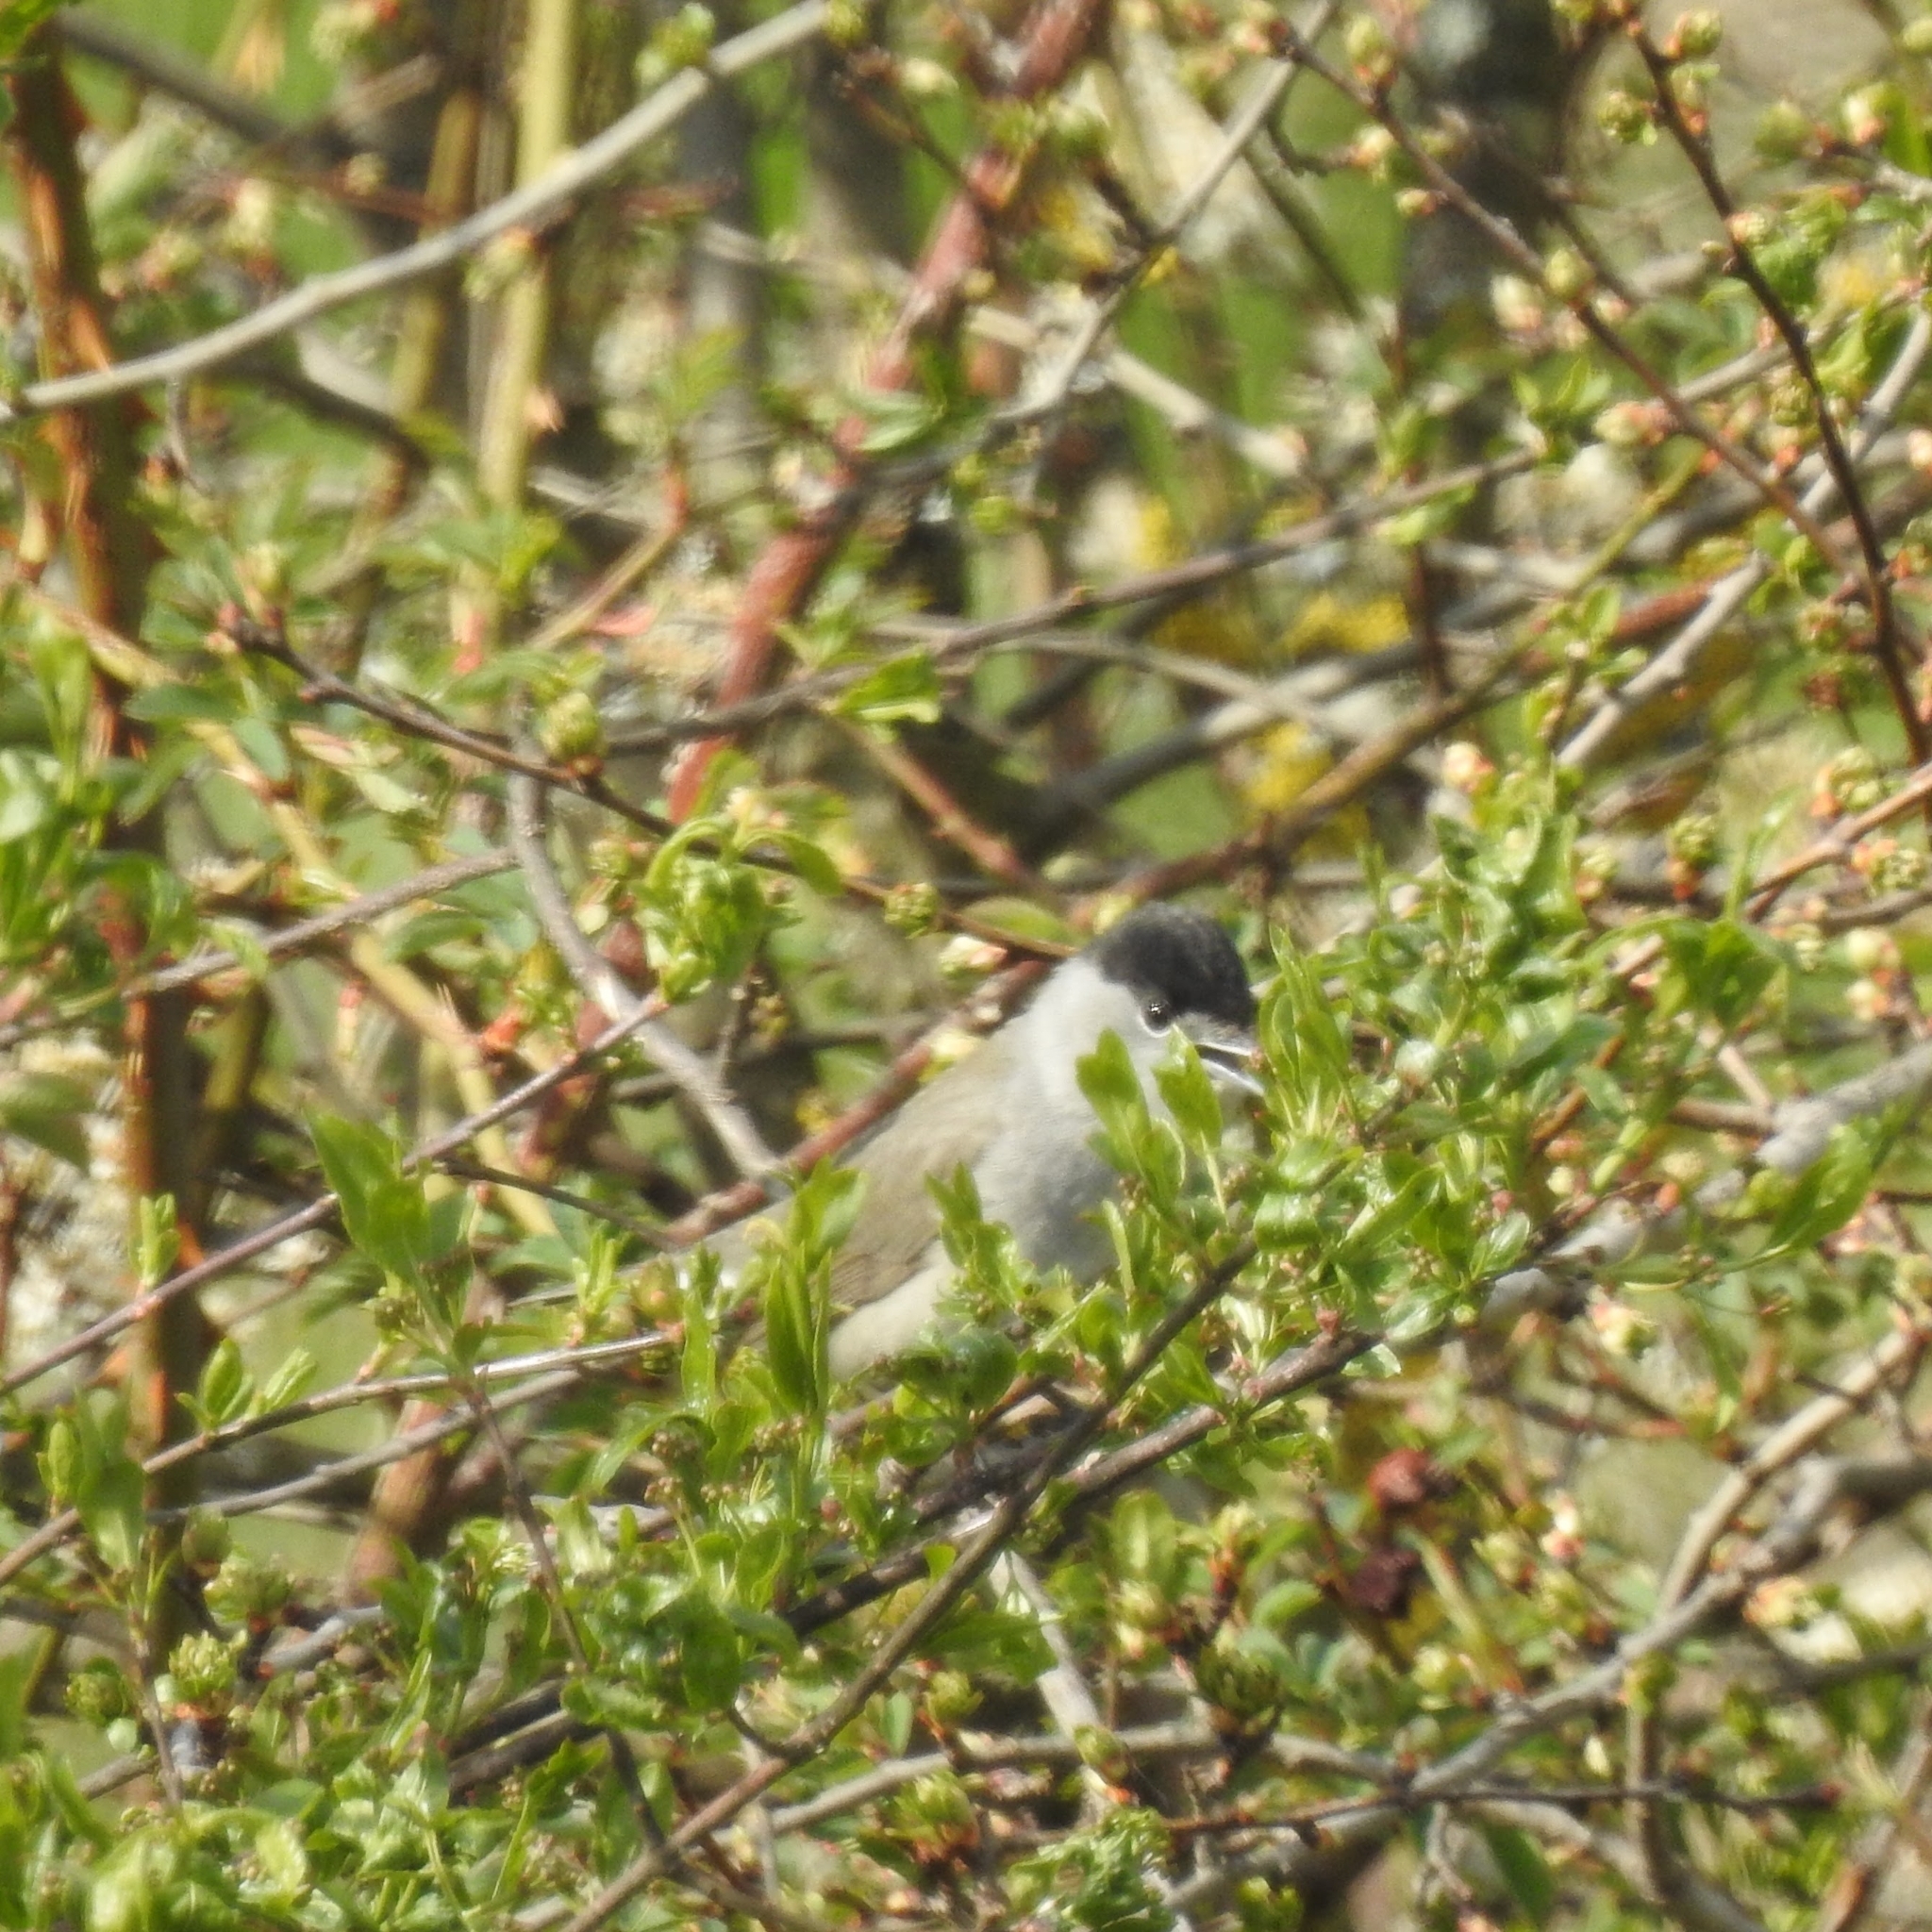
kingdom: Animalia
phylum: Chordata
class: Aves
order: Passeriformes
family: Sylviidae
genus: Sylvia
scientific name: Sylvia atricapilla
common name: Eurasian blackcap
